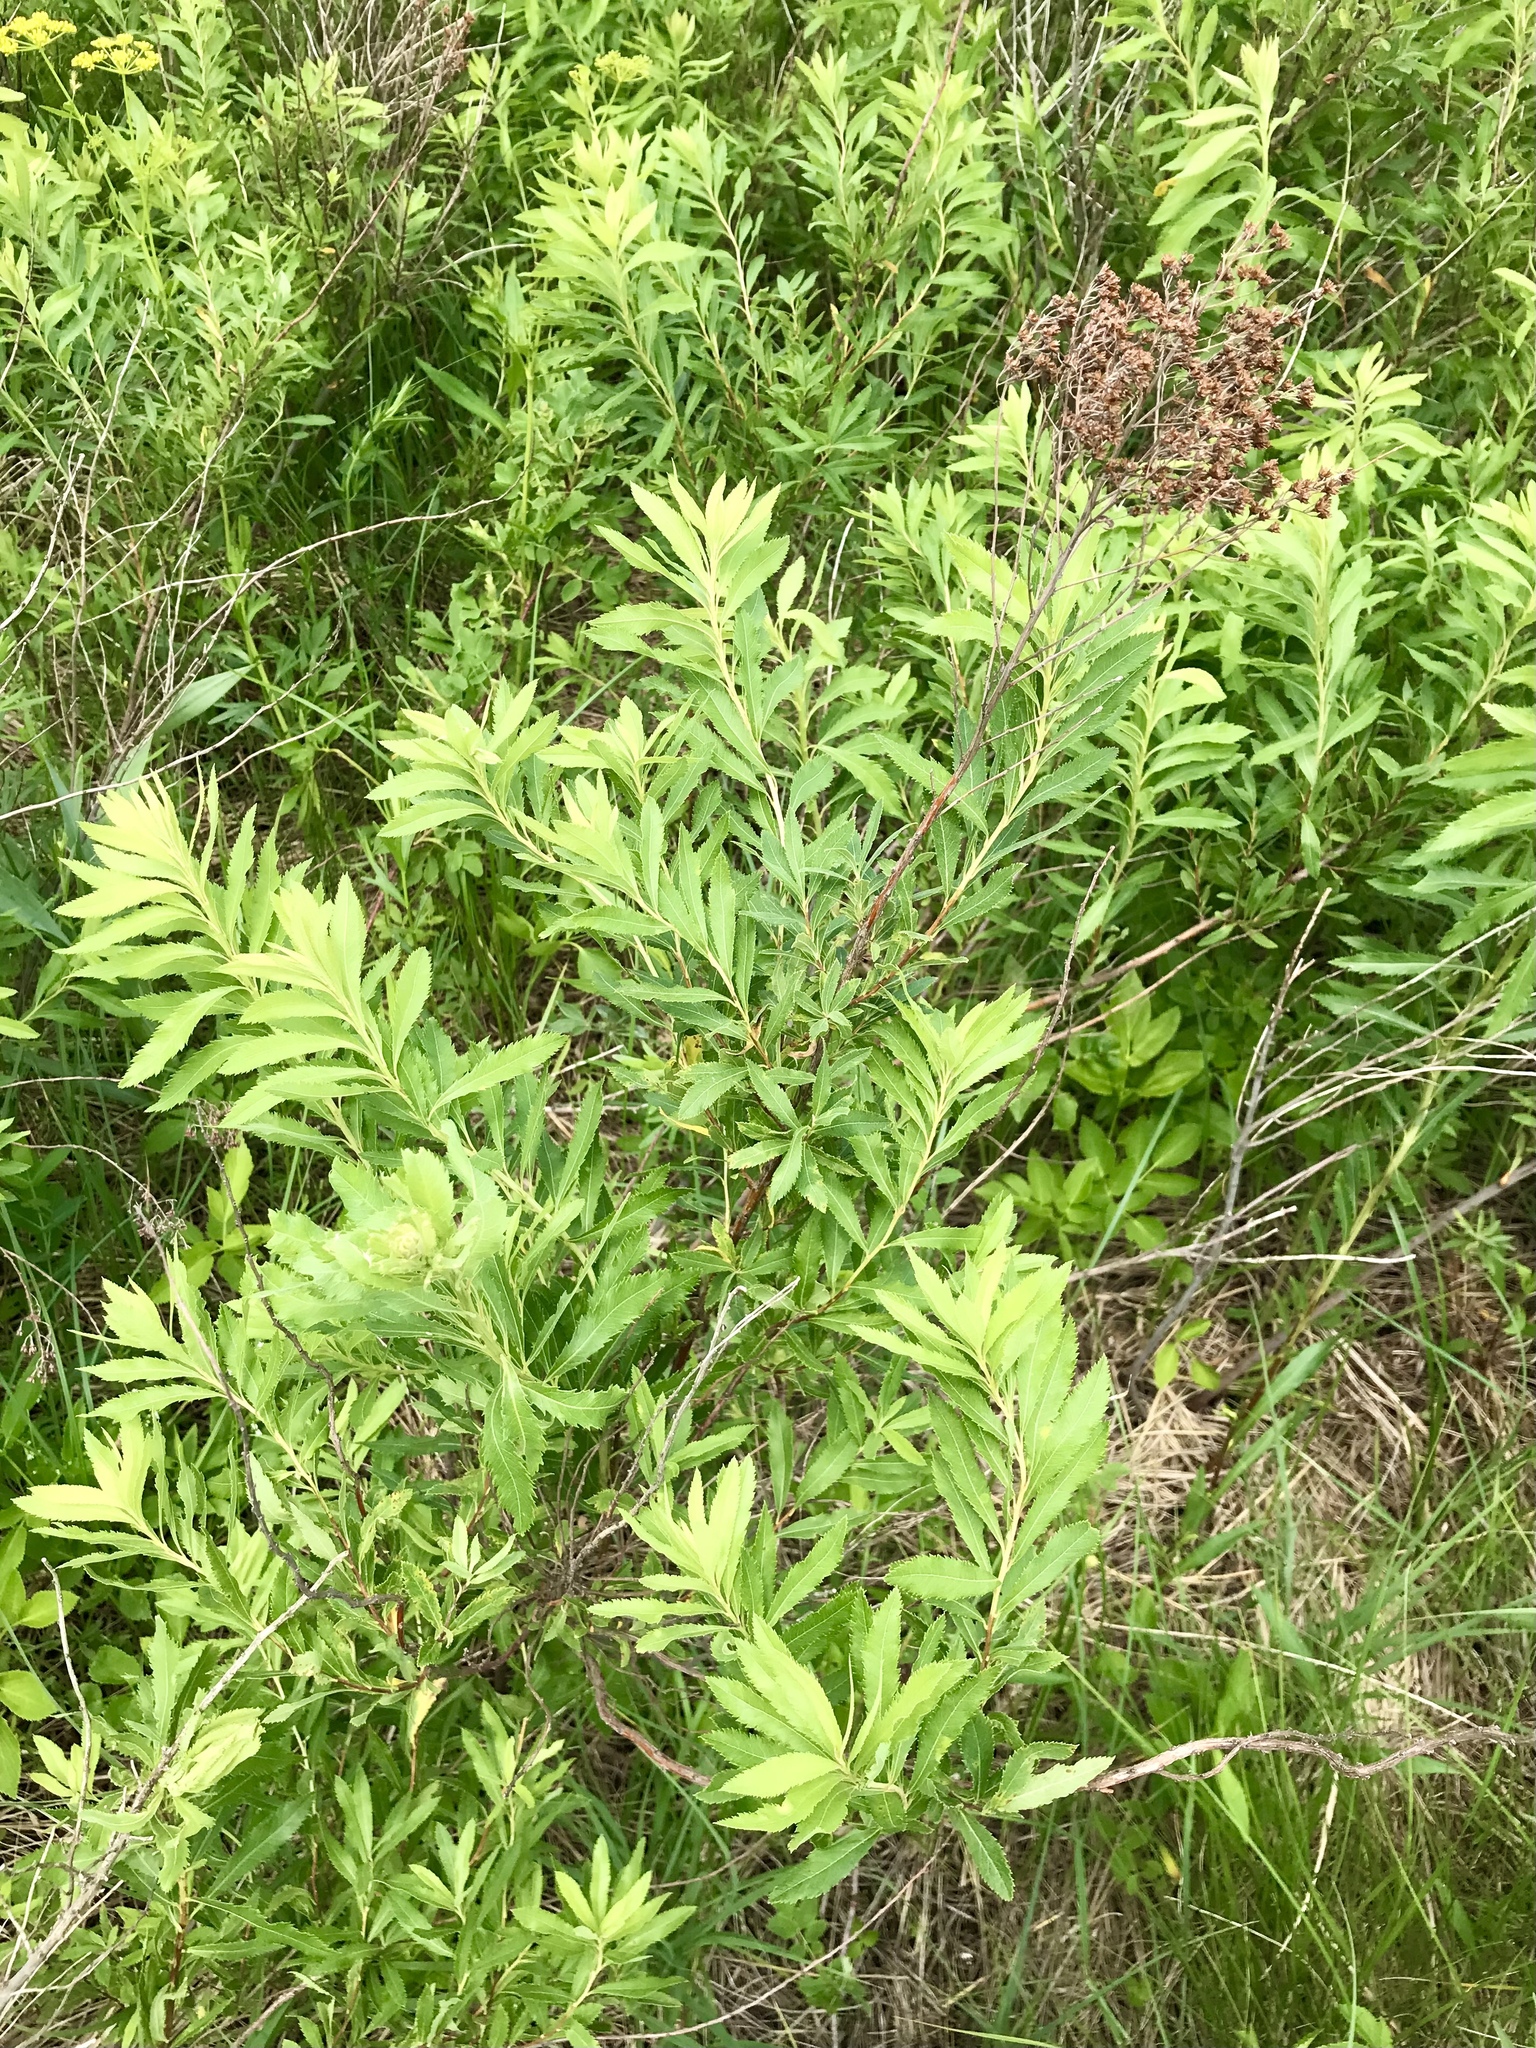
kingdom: Plantae
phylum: Tracheophyta
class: Magnoliopsida
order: Rosales
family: Rosaceae
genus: Spiraea
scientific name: Spiraea alba
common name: Pale bridewort
